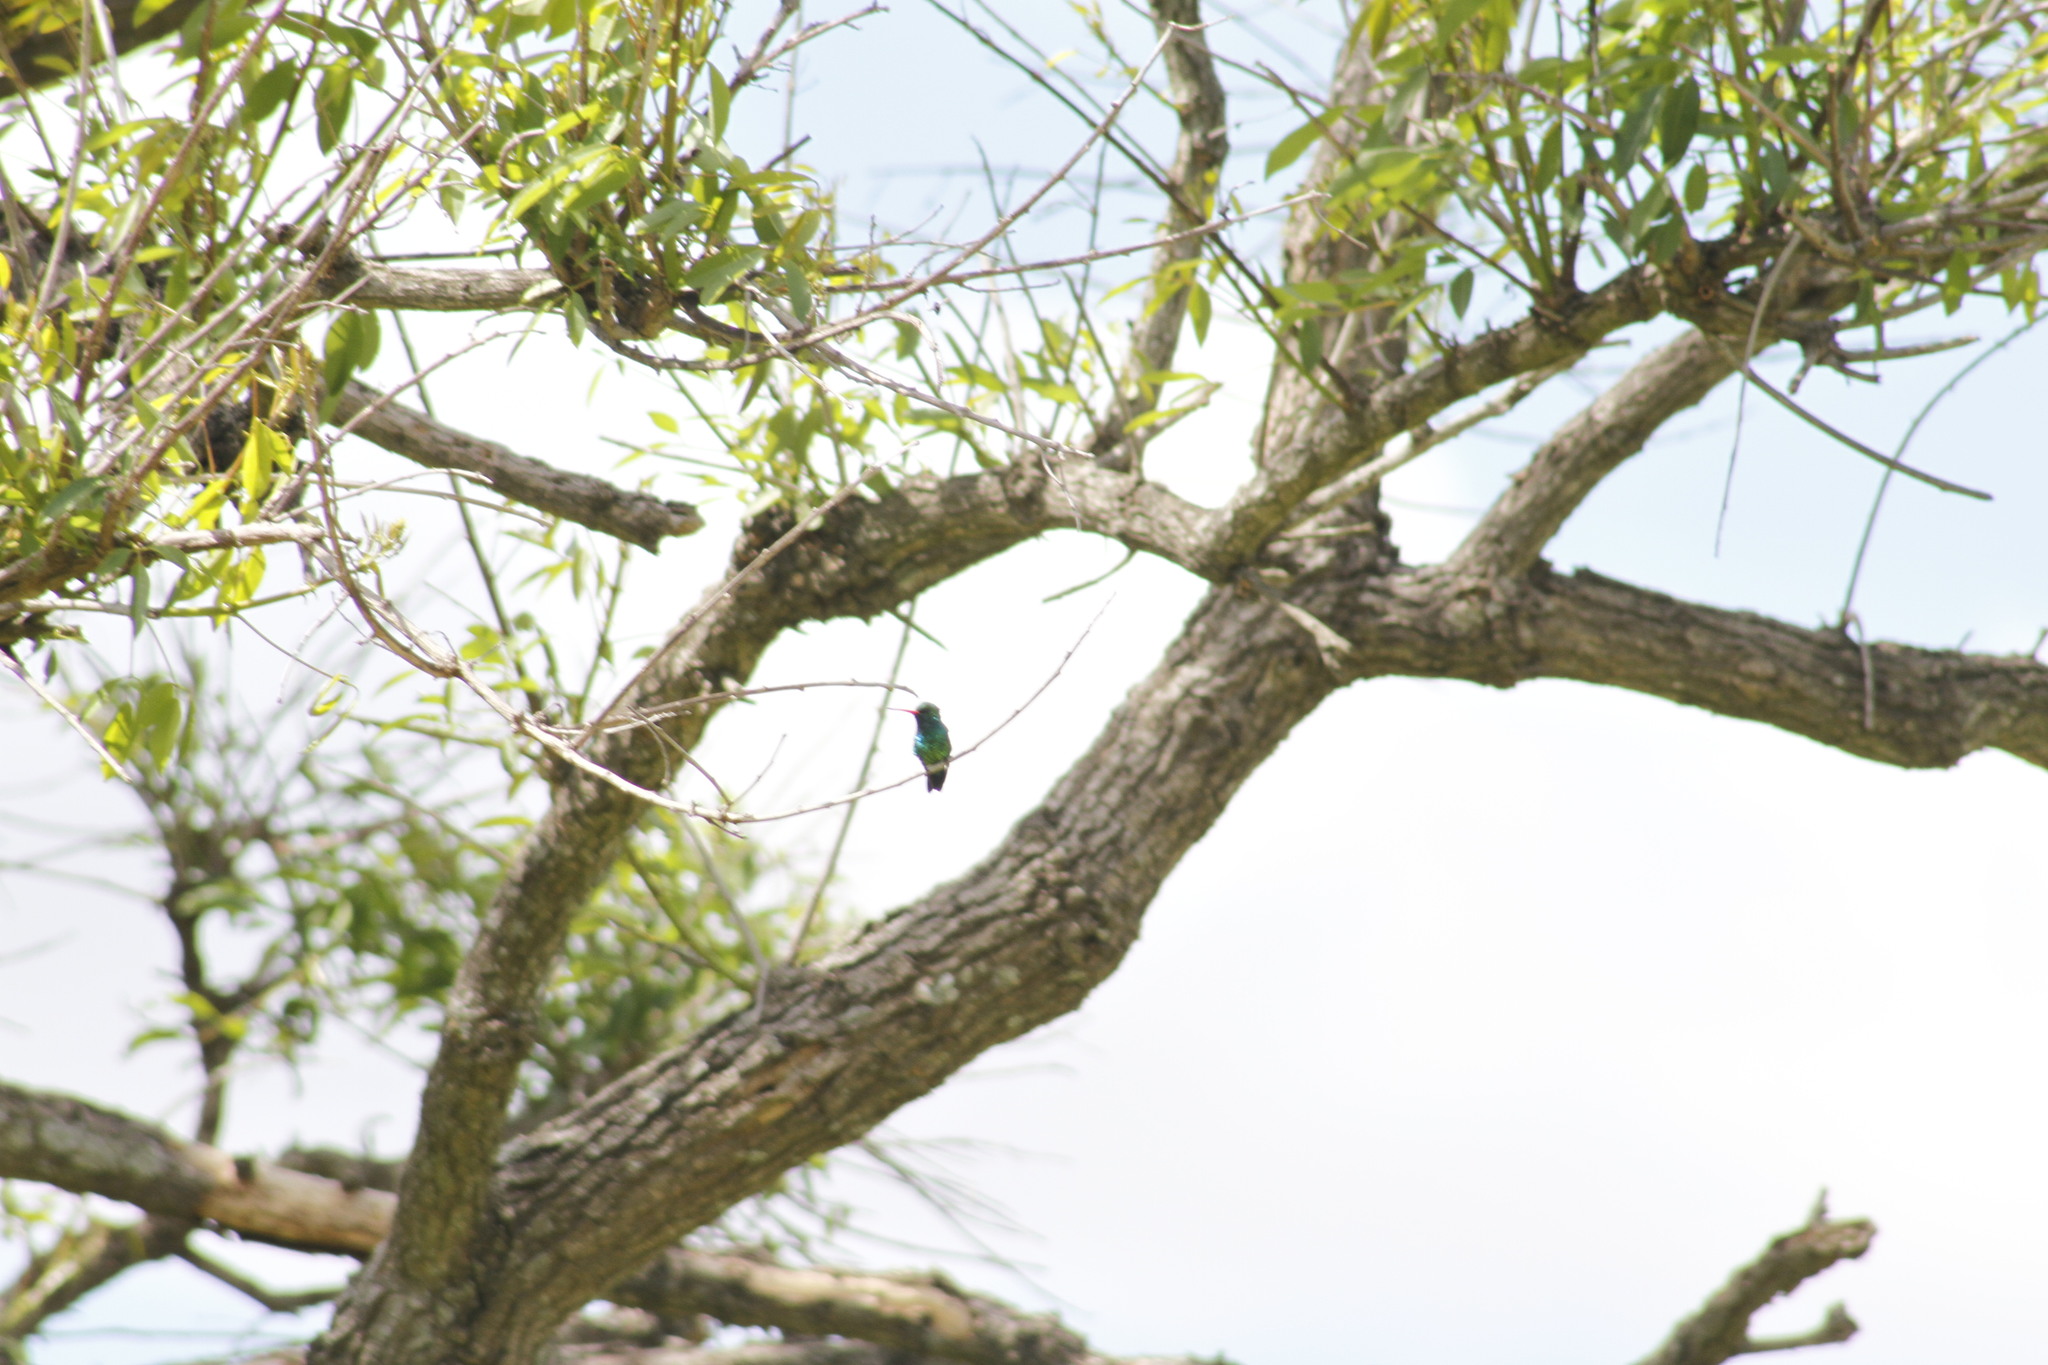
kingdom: Animalia
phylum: Chordata
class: Aves
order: Apodiformes
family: Trochilidae
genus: Chlorostilbon
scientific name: Chlorostilbon lucidus
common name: Glittering-bellied emerald
